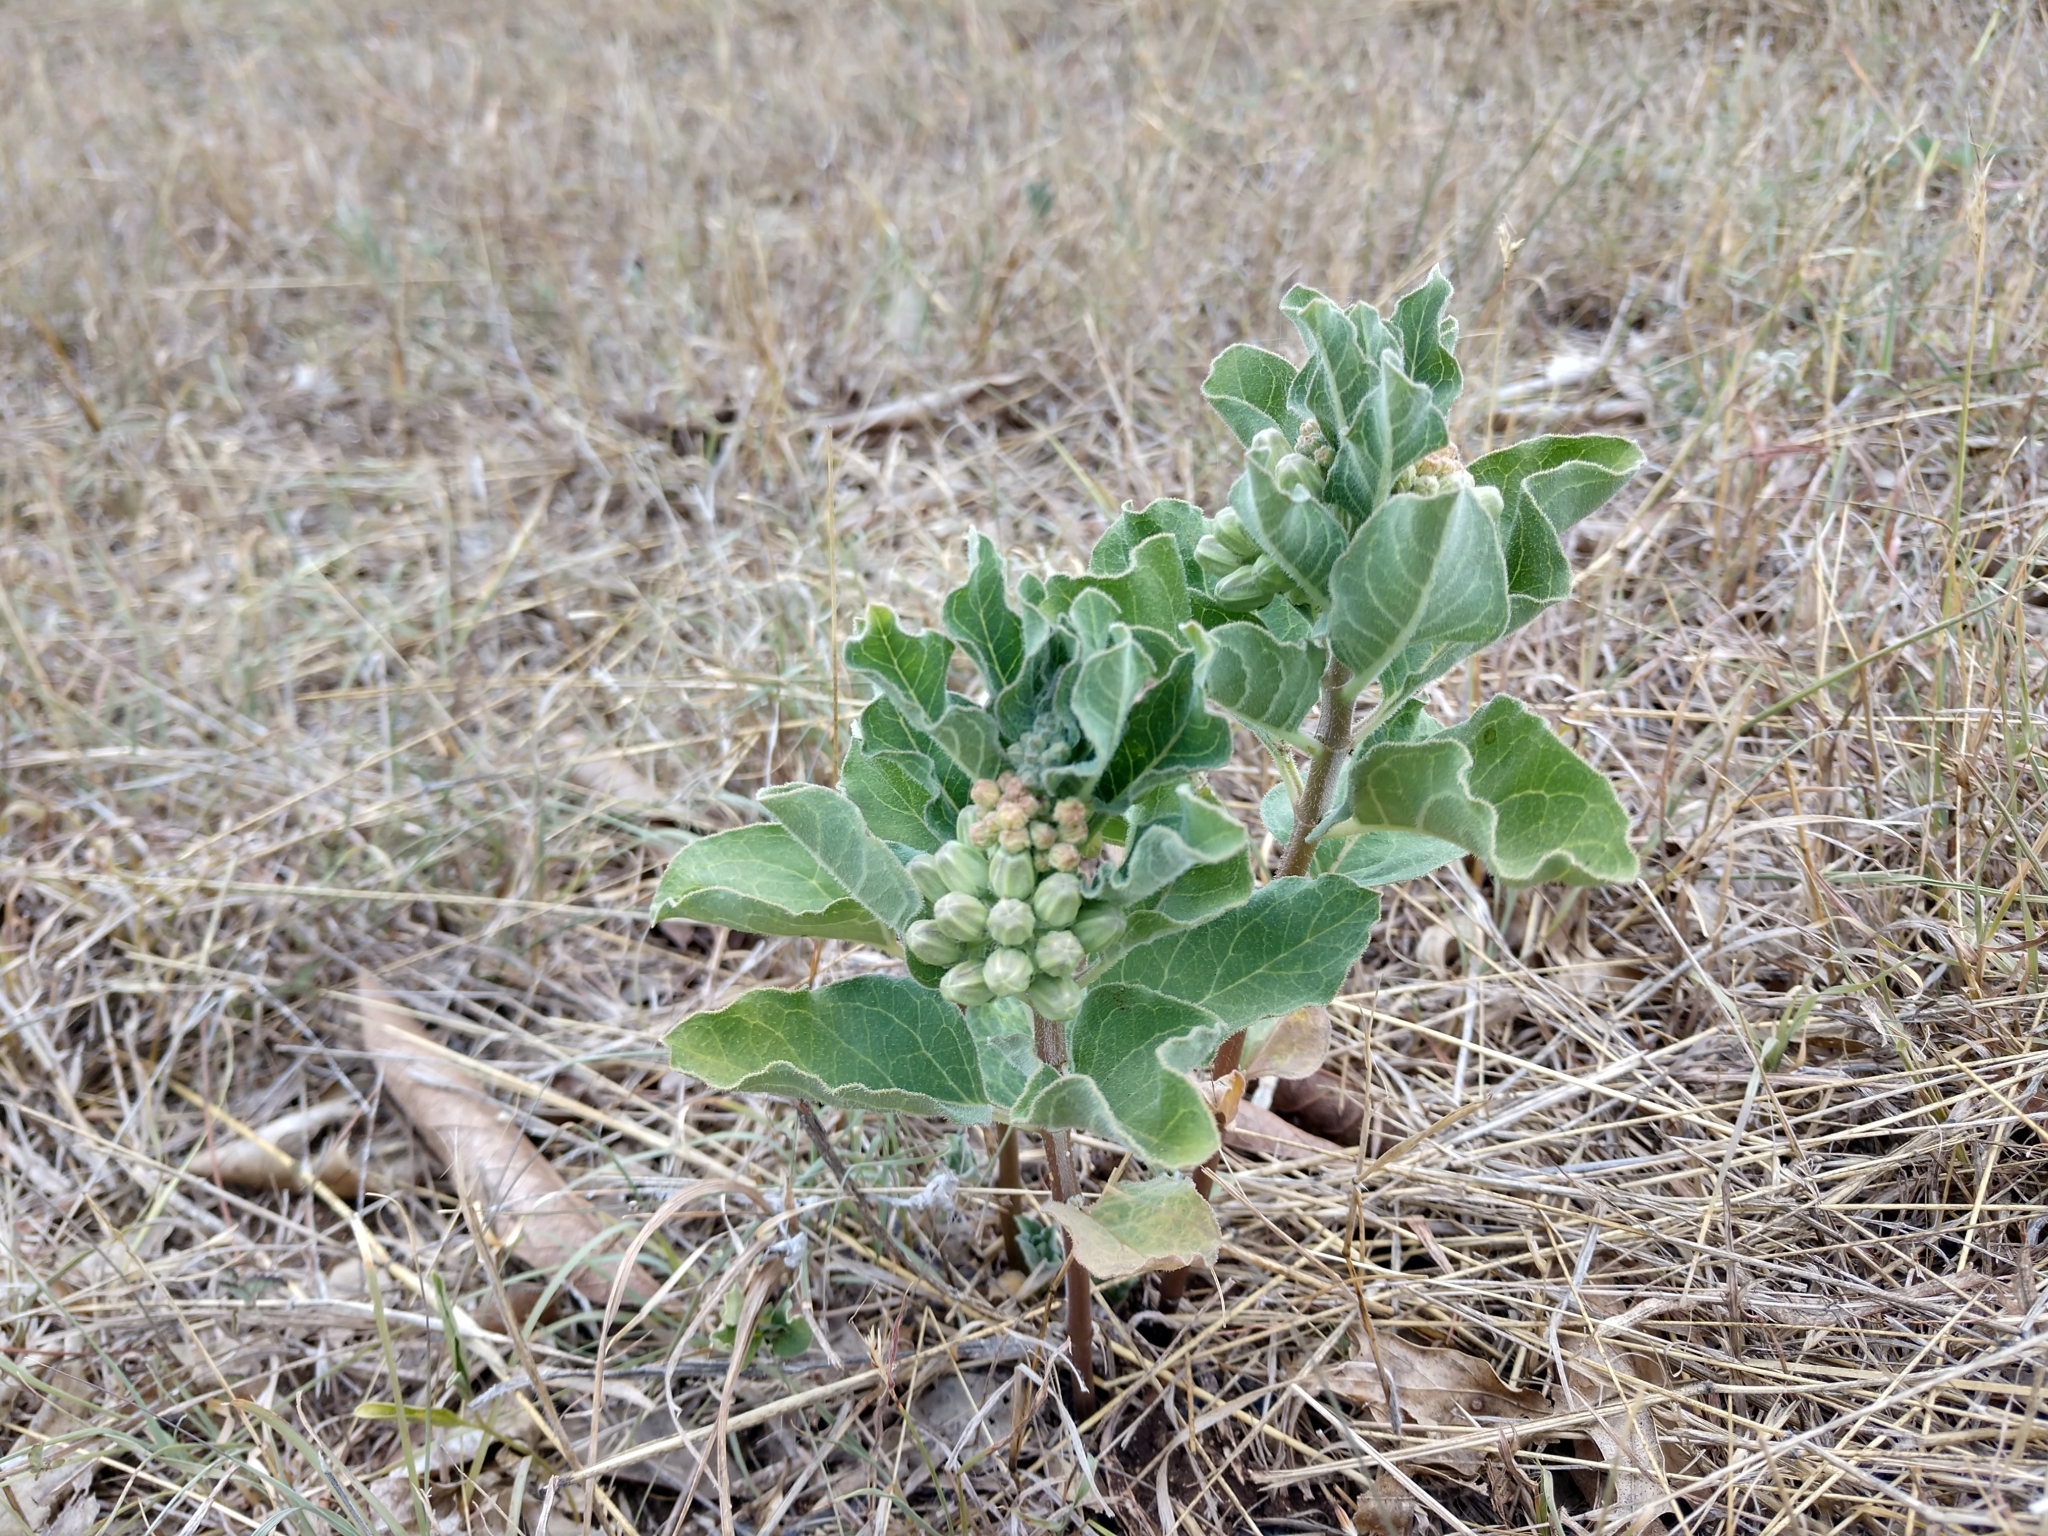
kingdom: Plantae
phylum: Tracheophyta
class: Magnoliopsida
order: Gentianales
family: Apocynaceae
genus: Asclepias
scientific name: Asclepias oenotheroides
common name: Zizotes milkweed
